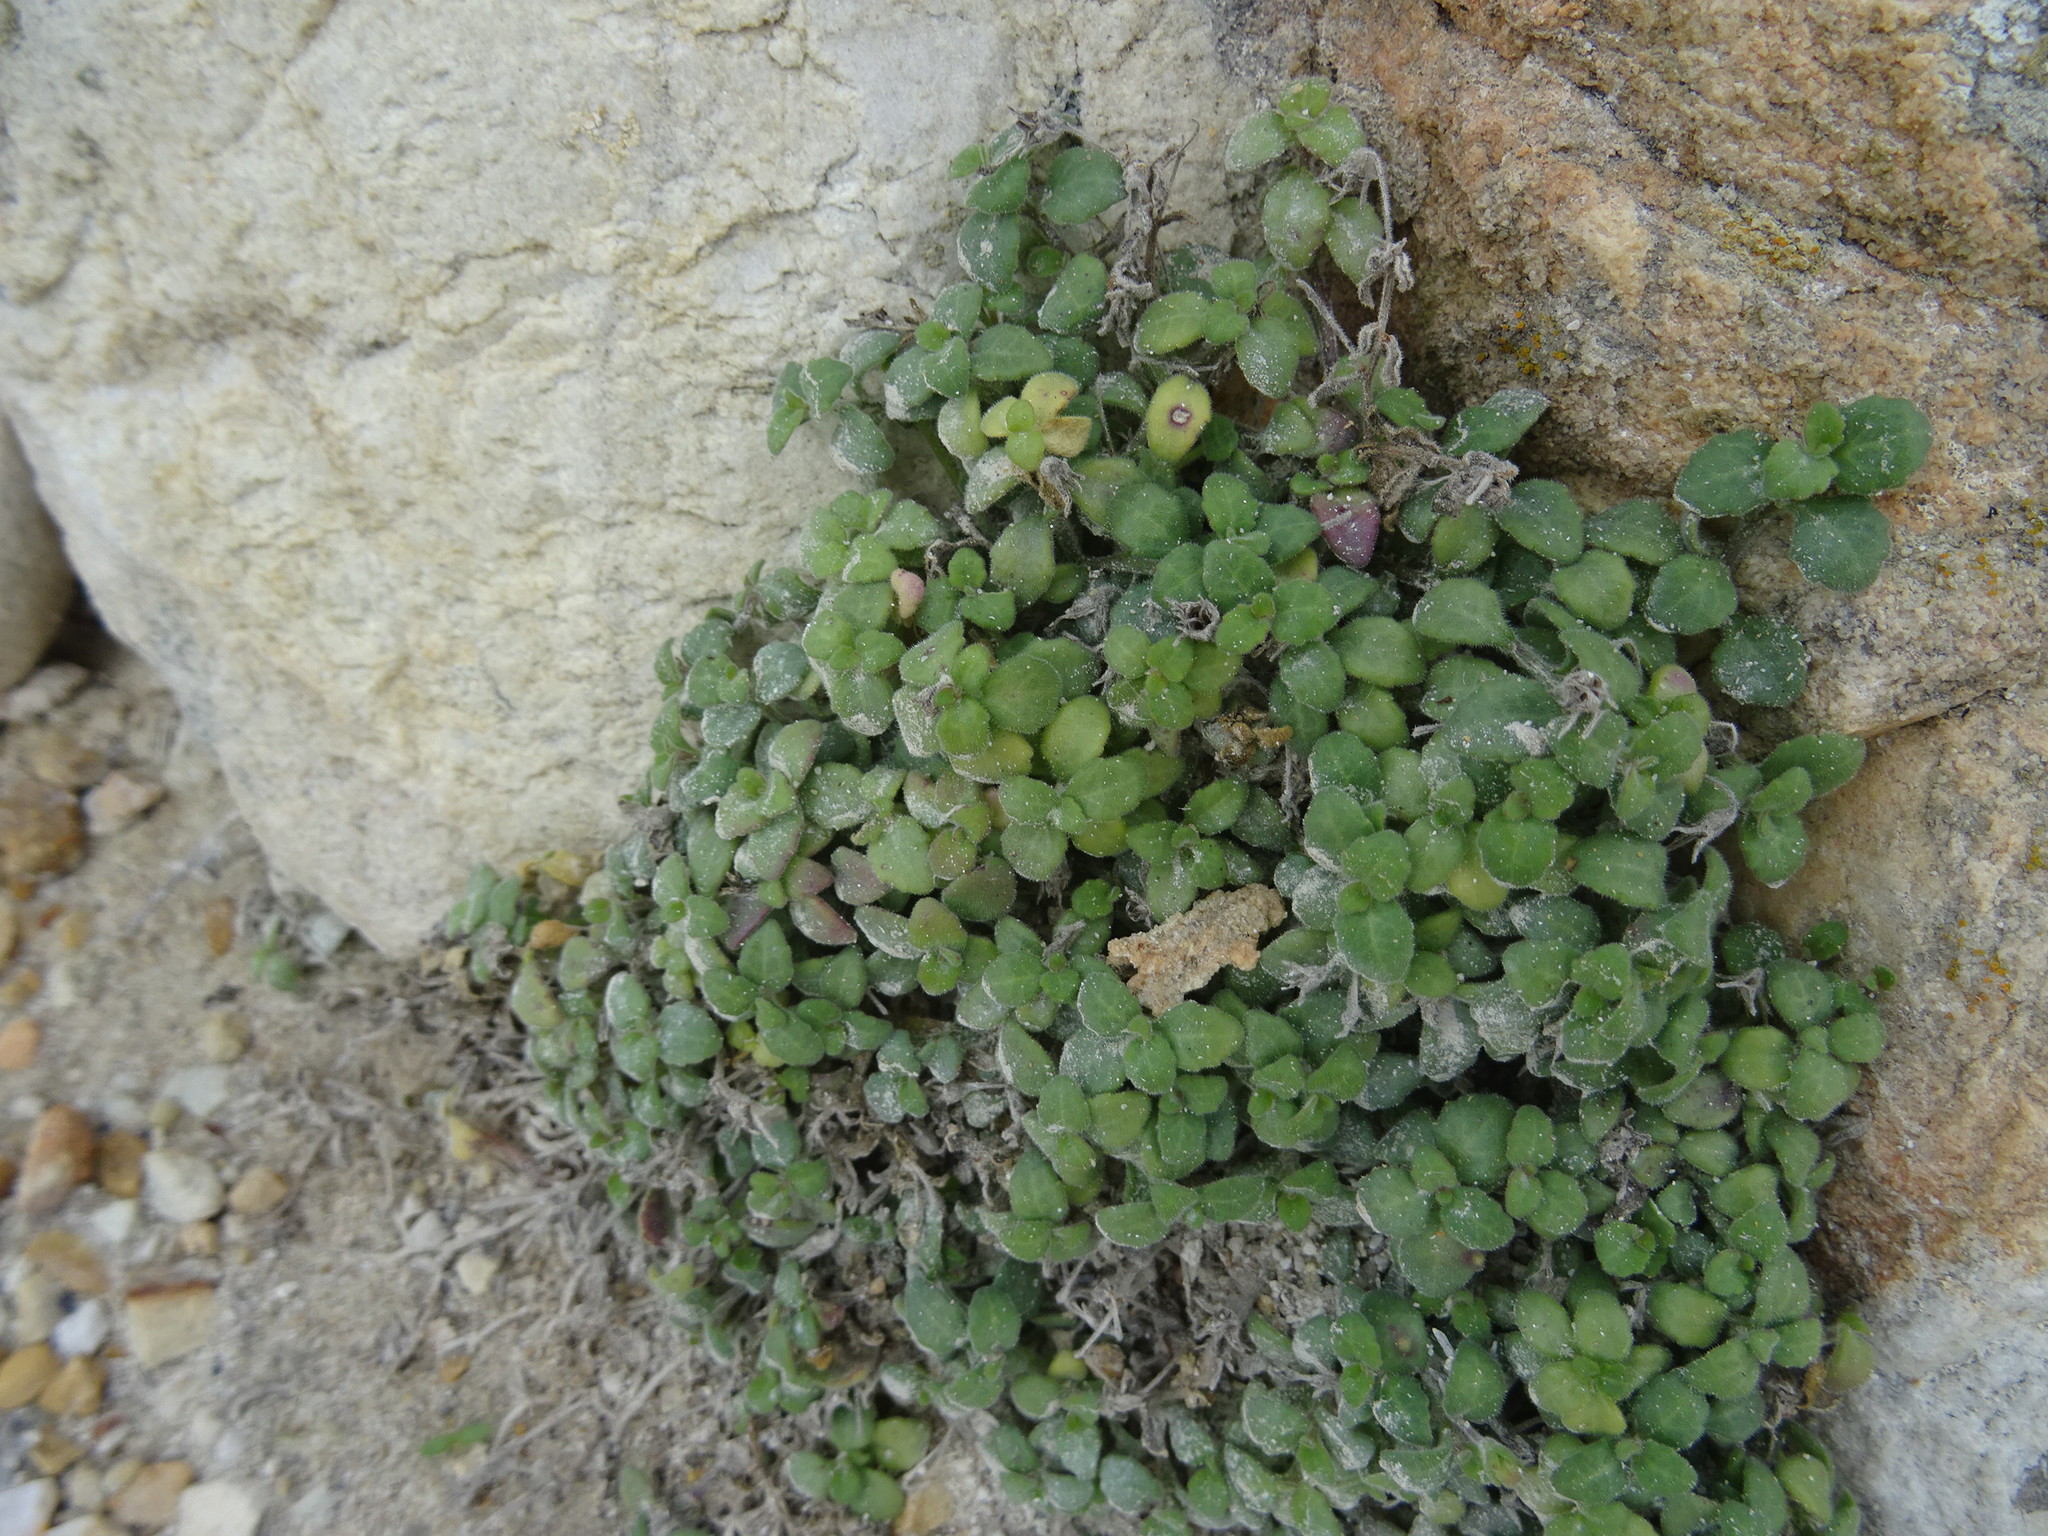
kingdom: Plantae
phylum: Tracheophyta
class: Magnoliopsida
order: Asterales
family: Campanulaceae
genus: Lobelia
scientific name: Lobelia boivinii
